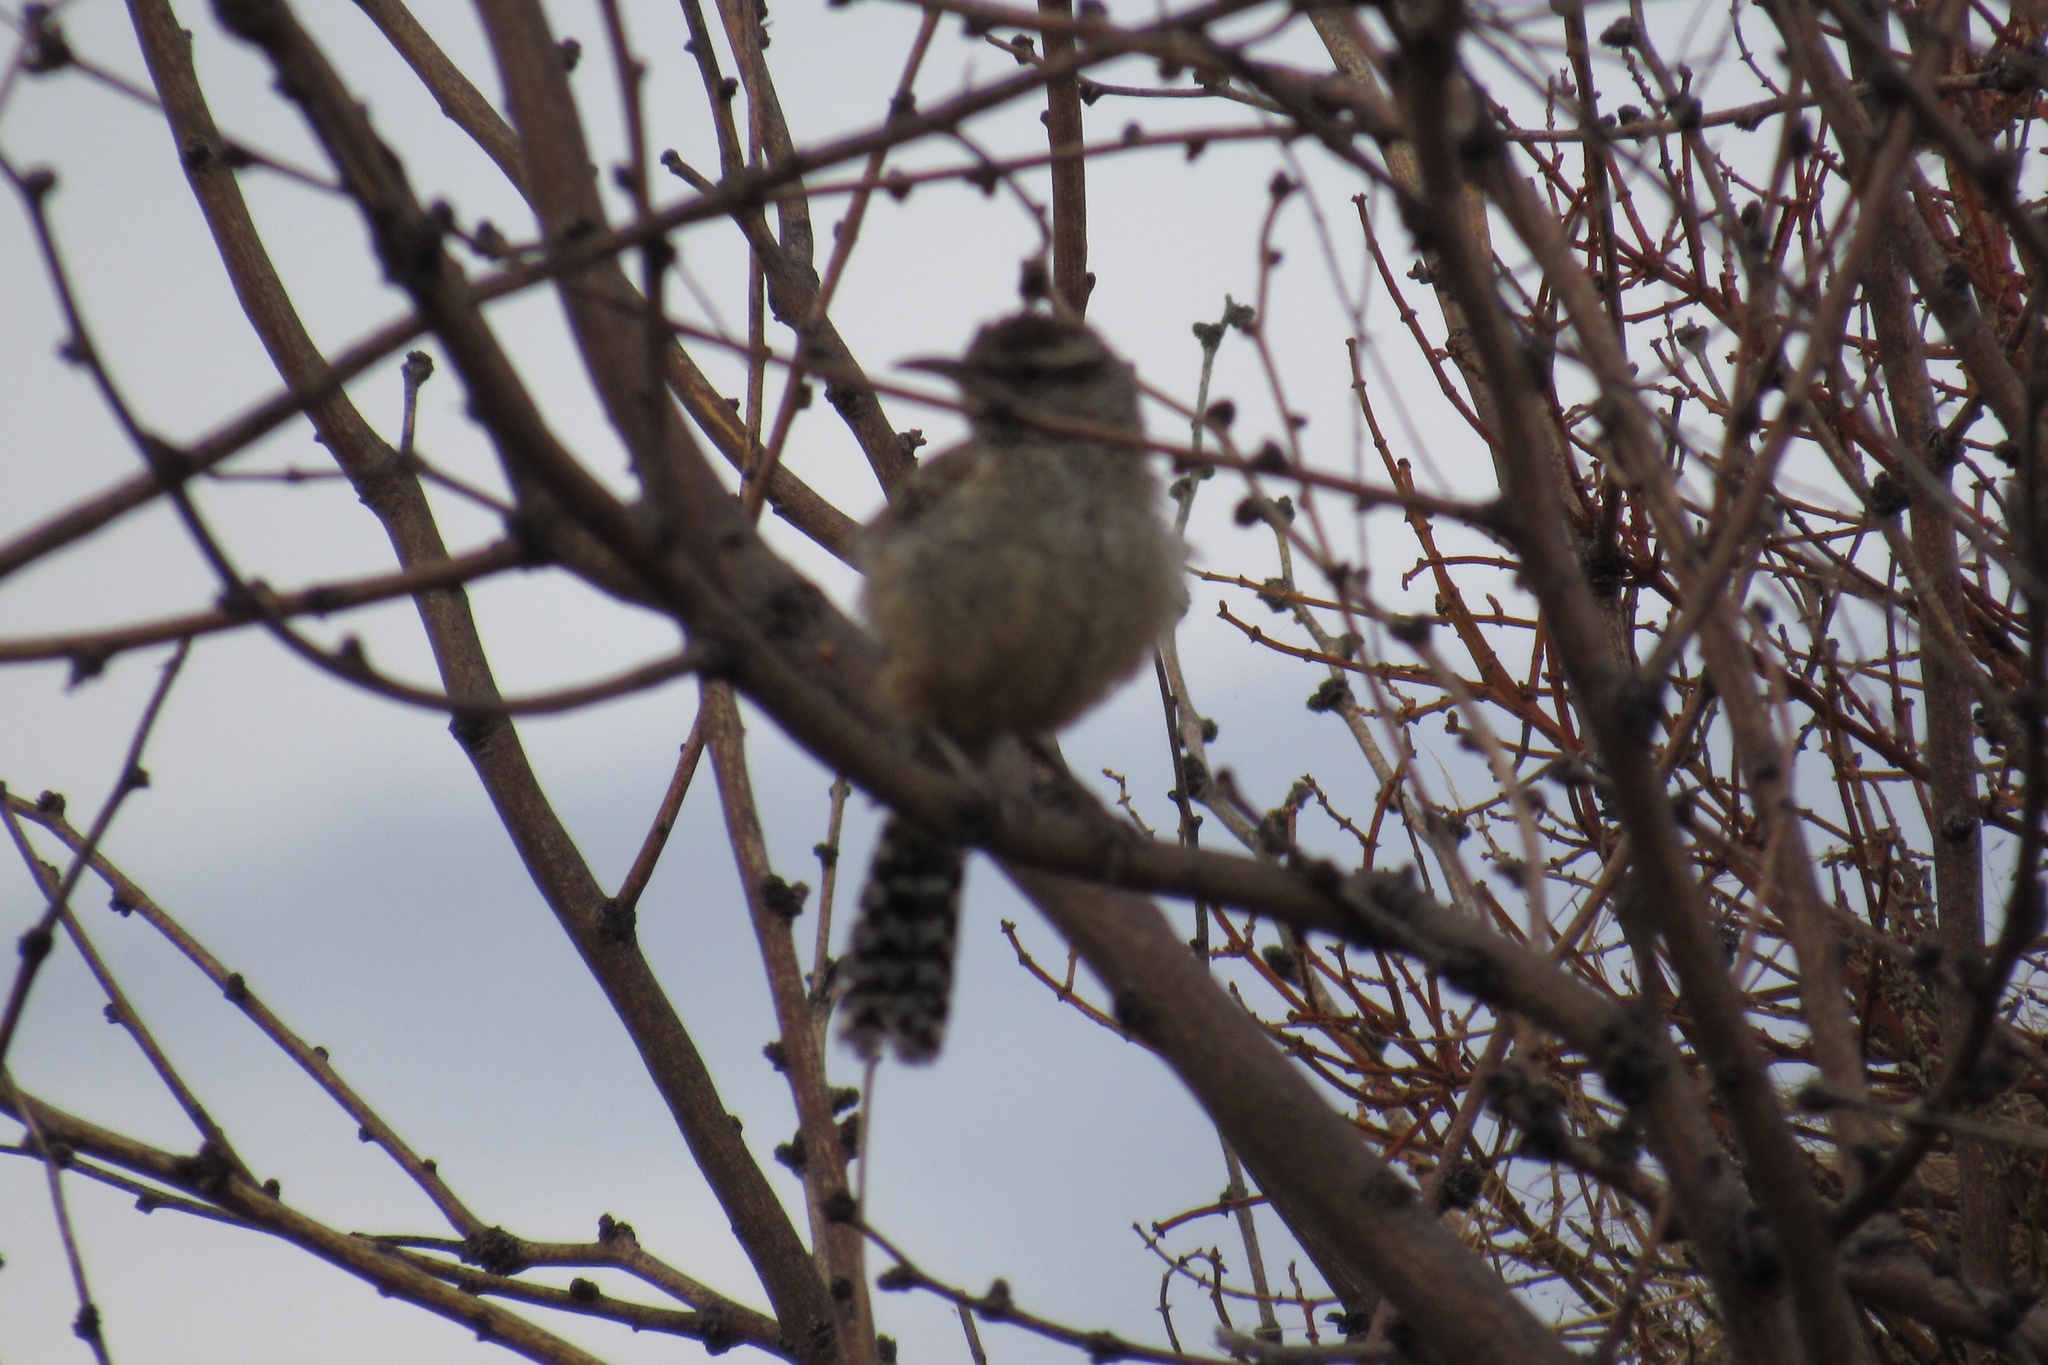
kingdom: Animalia
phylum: Chordata
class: Aves
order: Passeriformes
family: Troglodytidae
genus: Campylorhynchus
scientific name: Campylorhynchus brunneicapillus
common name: Cactus wren
